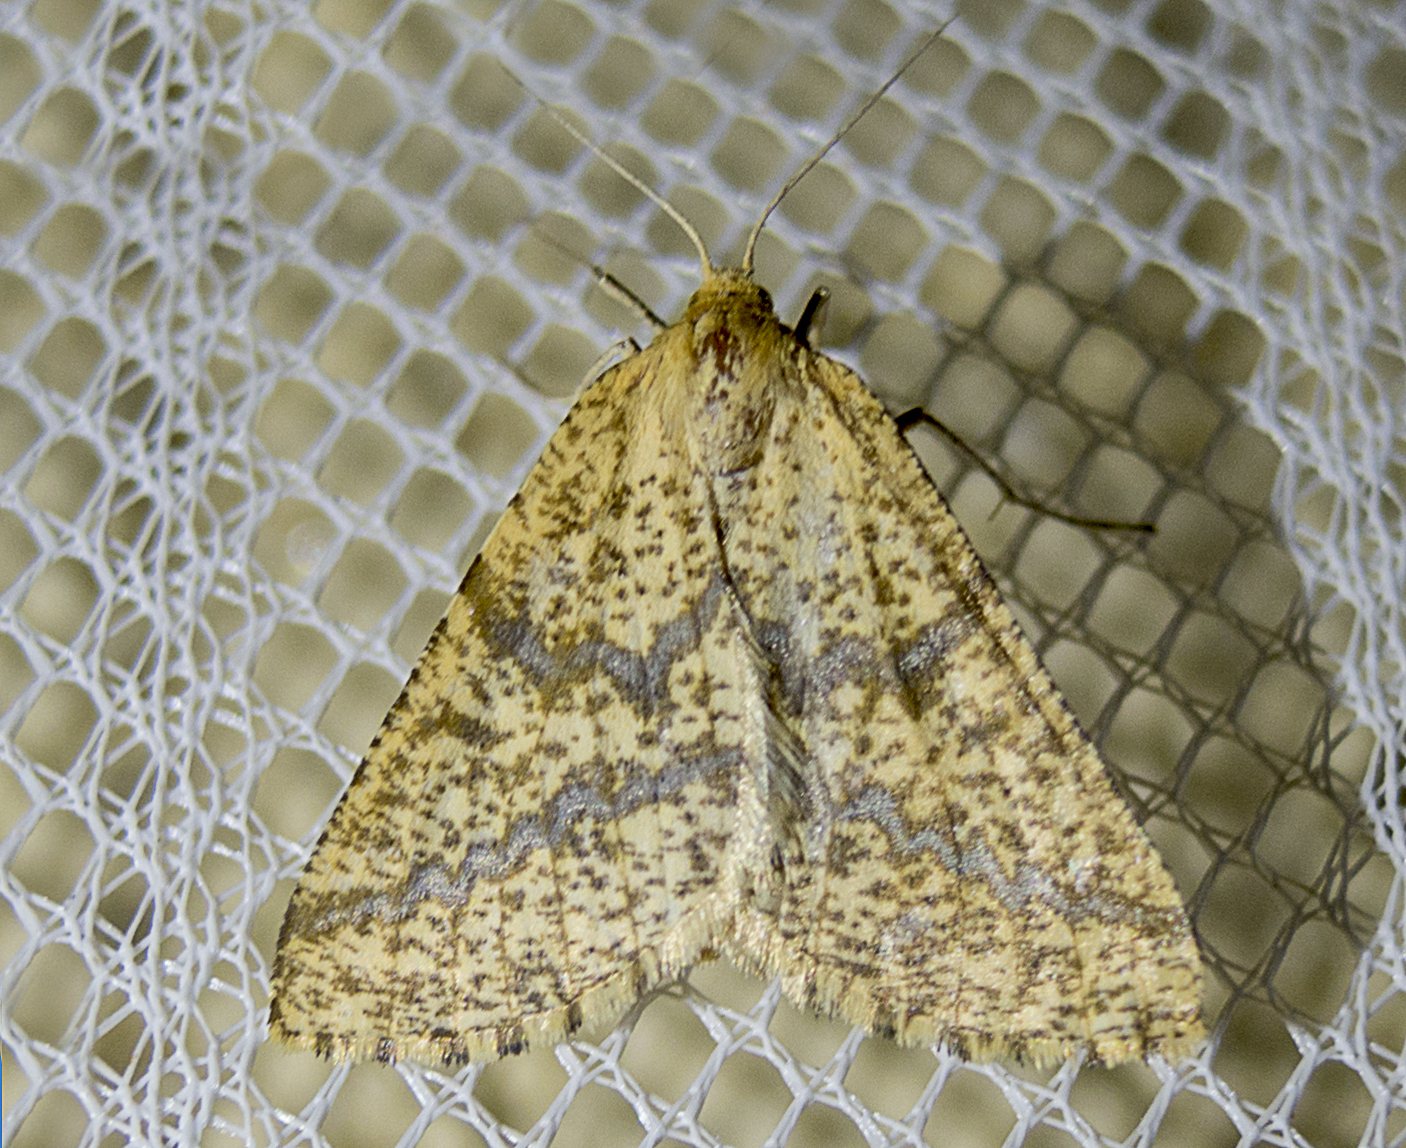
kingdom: Animalia
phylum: Arthropoda
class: Insecta
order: Lepidoptera
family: Geometridae
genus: Aspitates
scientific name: Aspitates ochrearia
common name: Yellow belle
